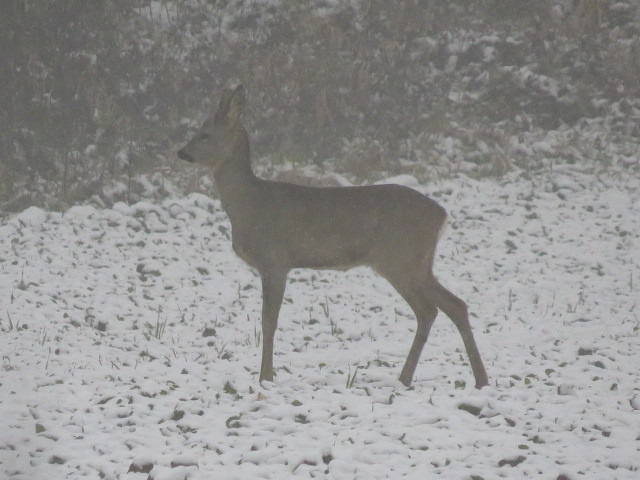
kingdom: Animalia
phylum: Chordata
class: Mammalia
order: Artiodactyla
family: Cervidae
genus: Capreolus
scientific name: Capreolus capreolus
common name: Western roe deer
